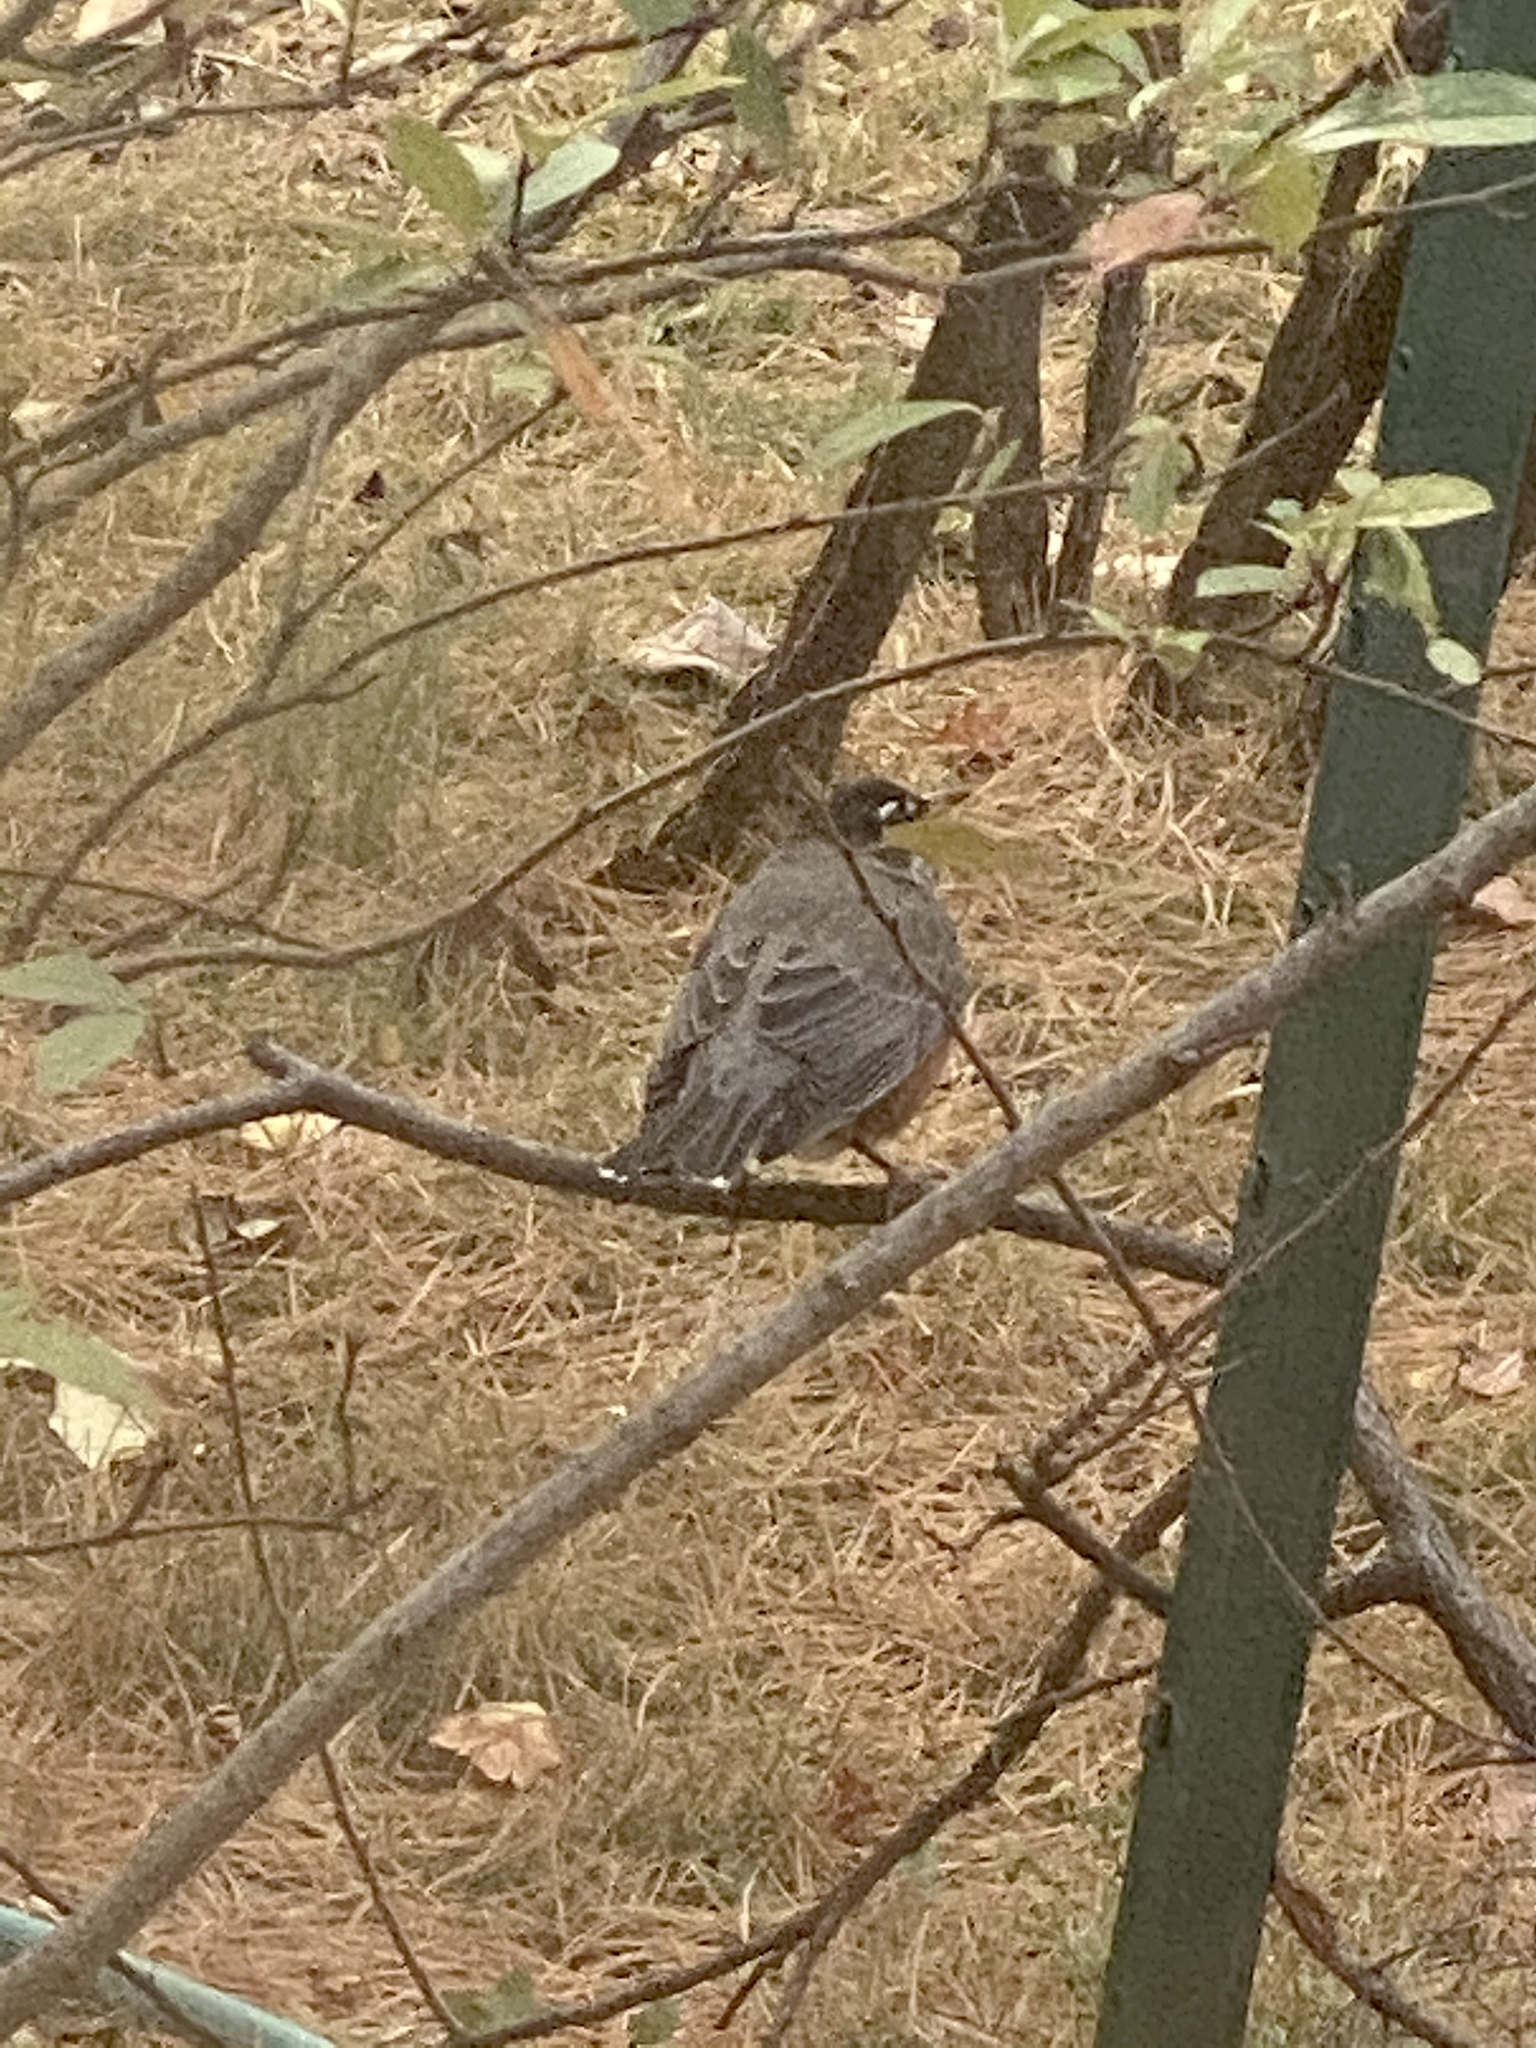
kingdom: Animalia
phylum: Chordata
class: Aves
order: Passeriformes
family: Turdidae
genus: Turdus
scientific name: Turdus migratorius
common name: American robin
